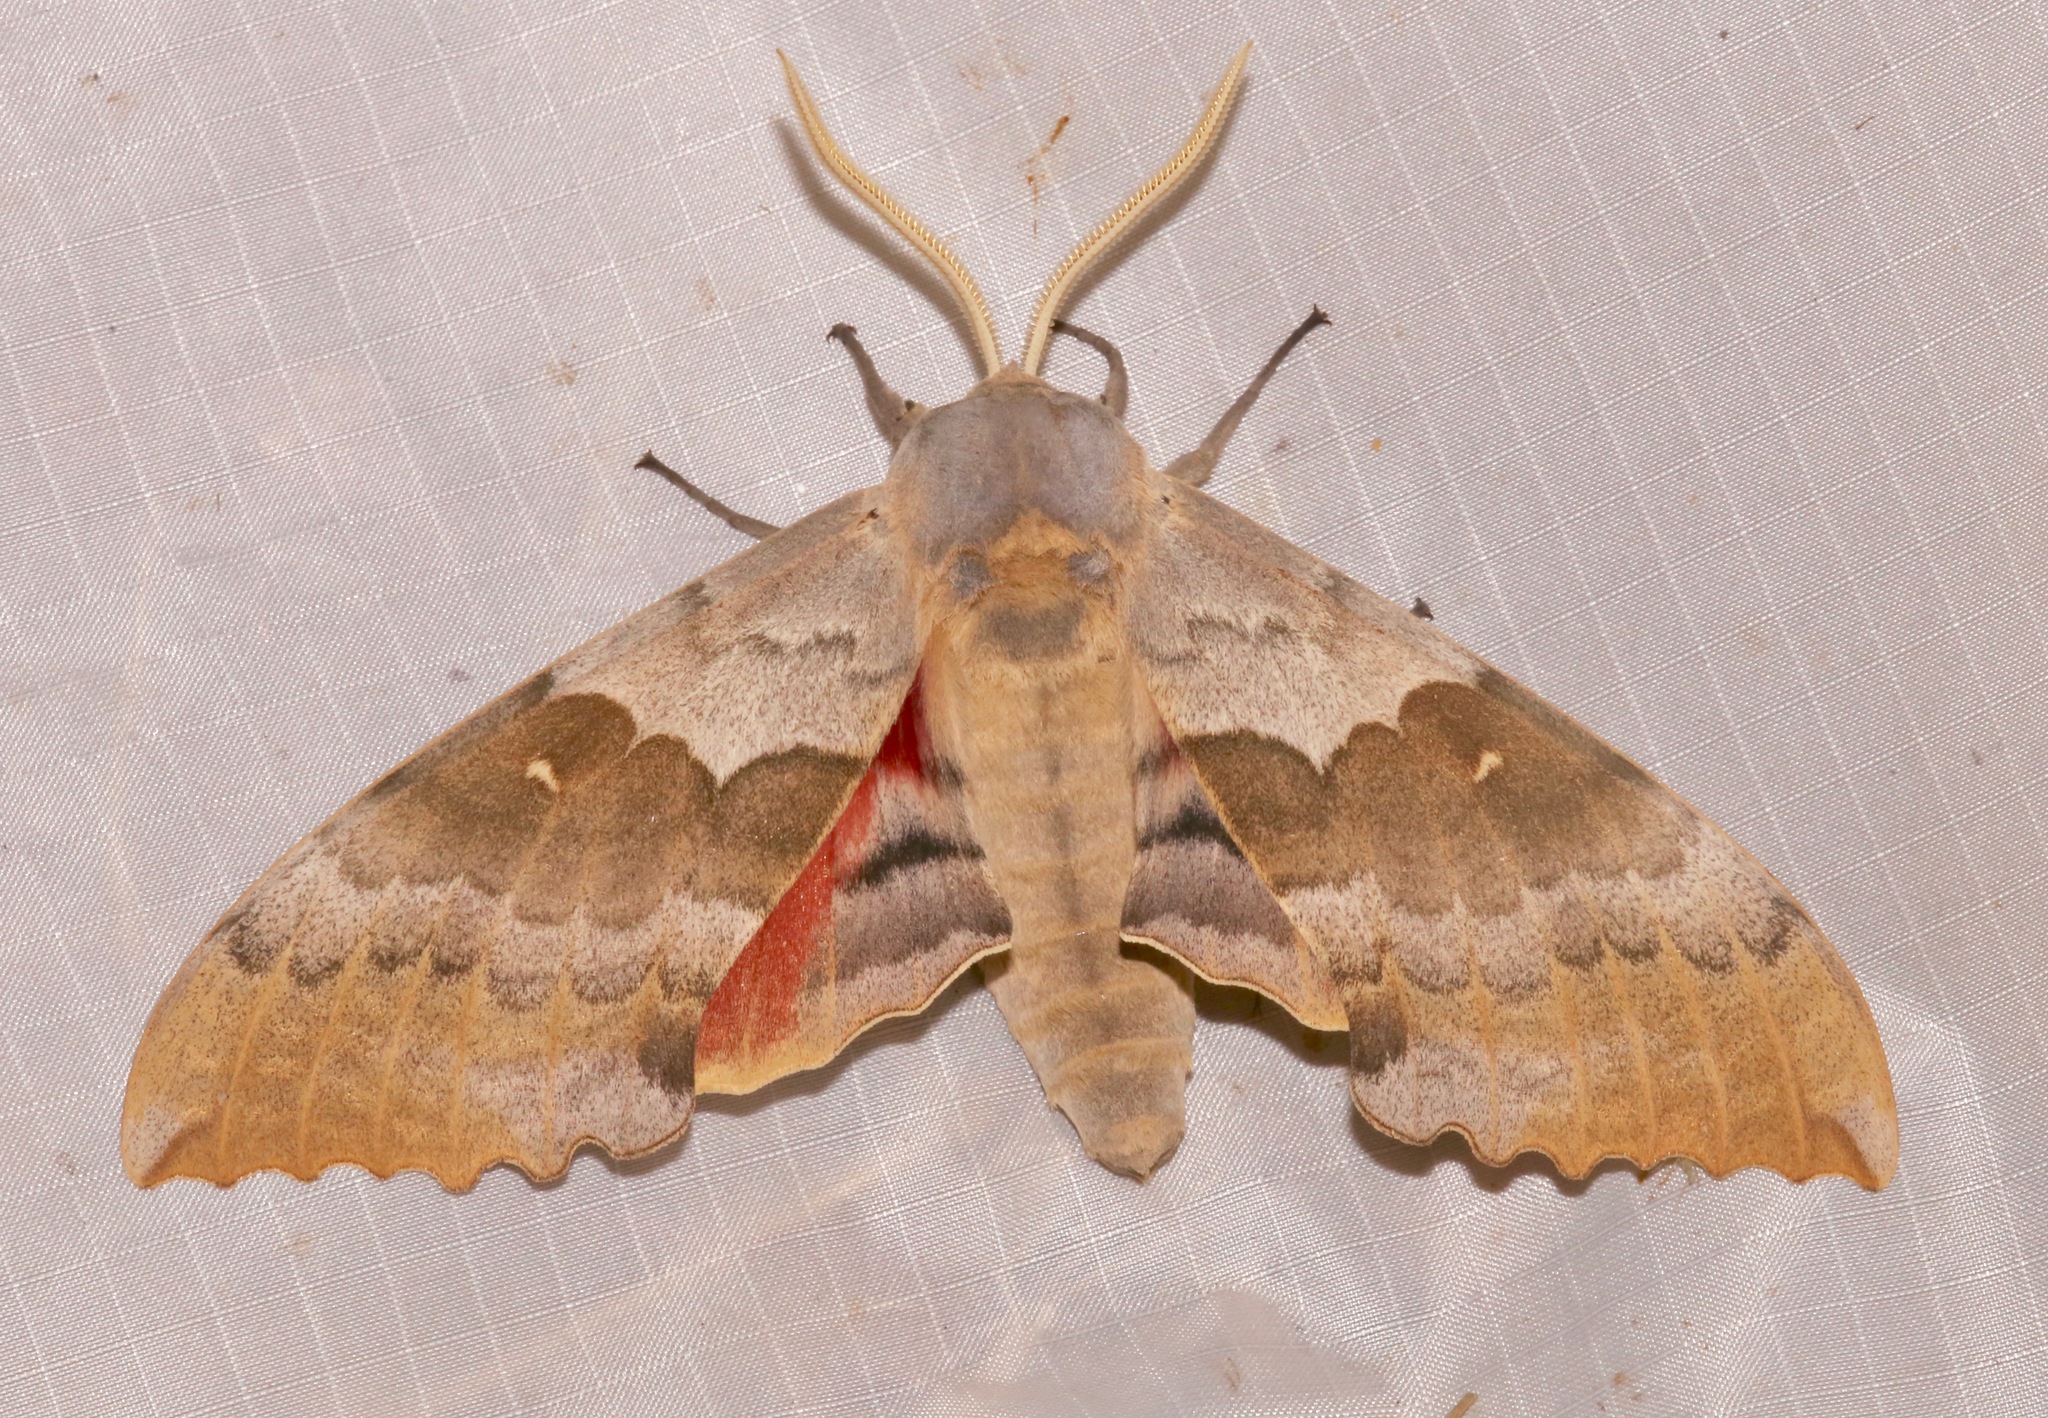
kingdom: Animalia
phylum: Arthropoda
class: Insecta
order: Lepidoptera
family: Sphingidae
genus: Pachysphinx
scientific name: Pachysphinx occidentalis
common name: Western poplar sphinx
